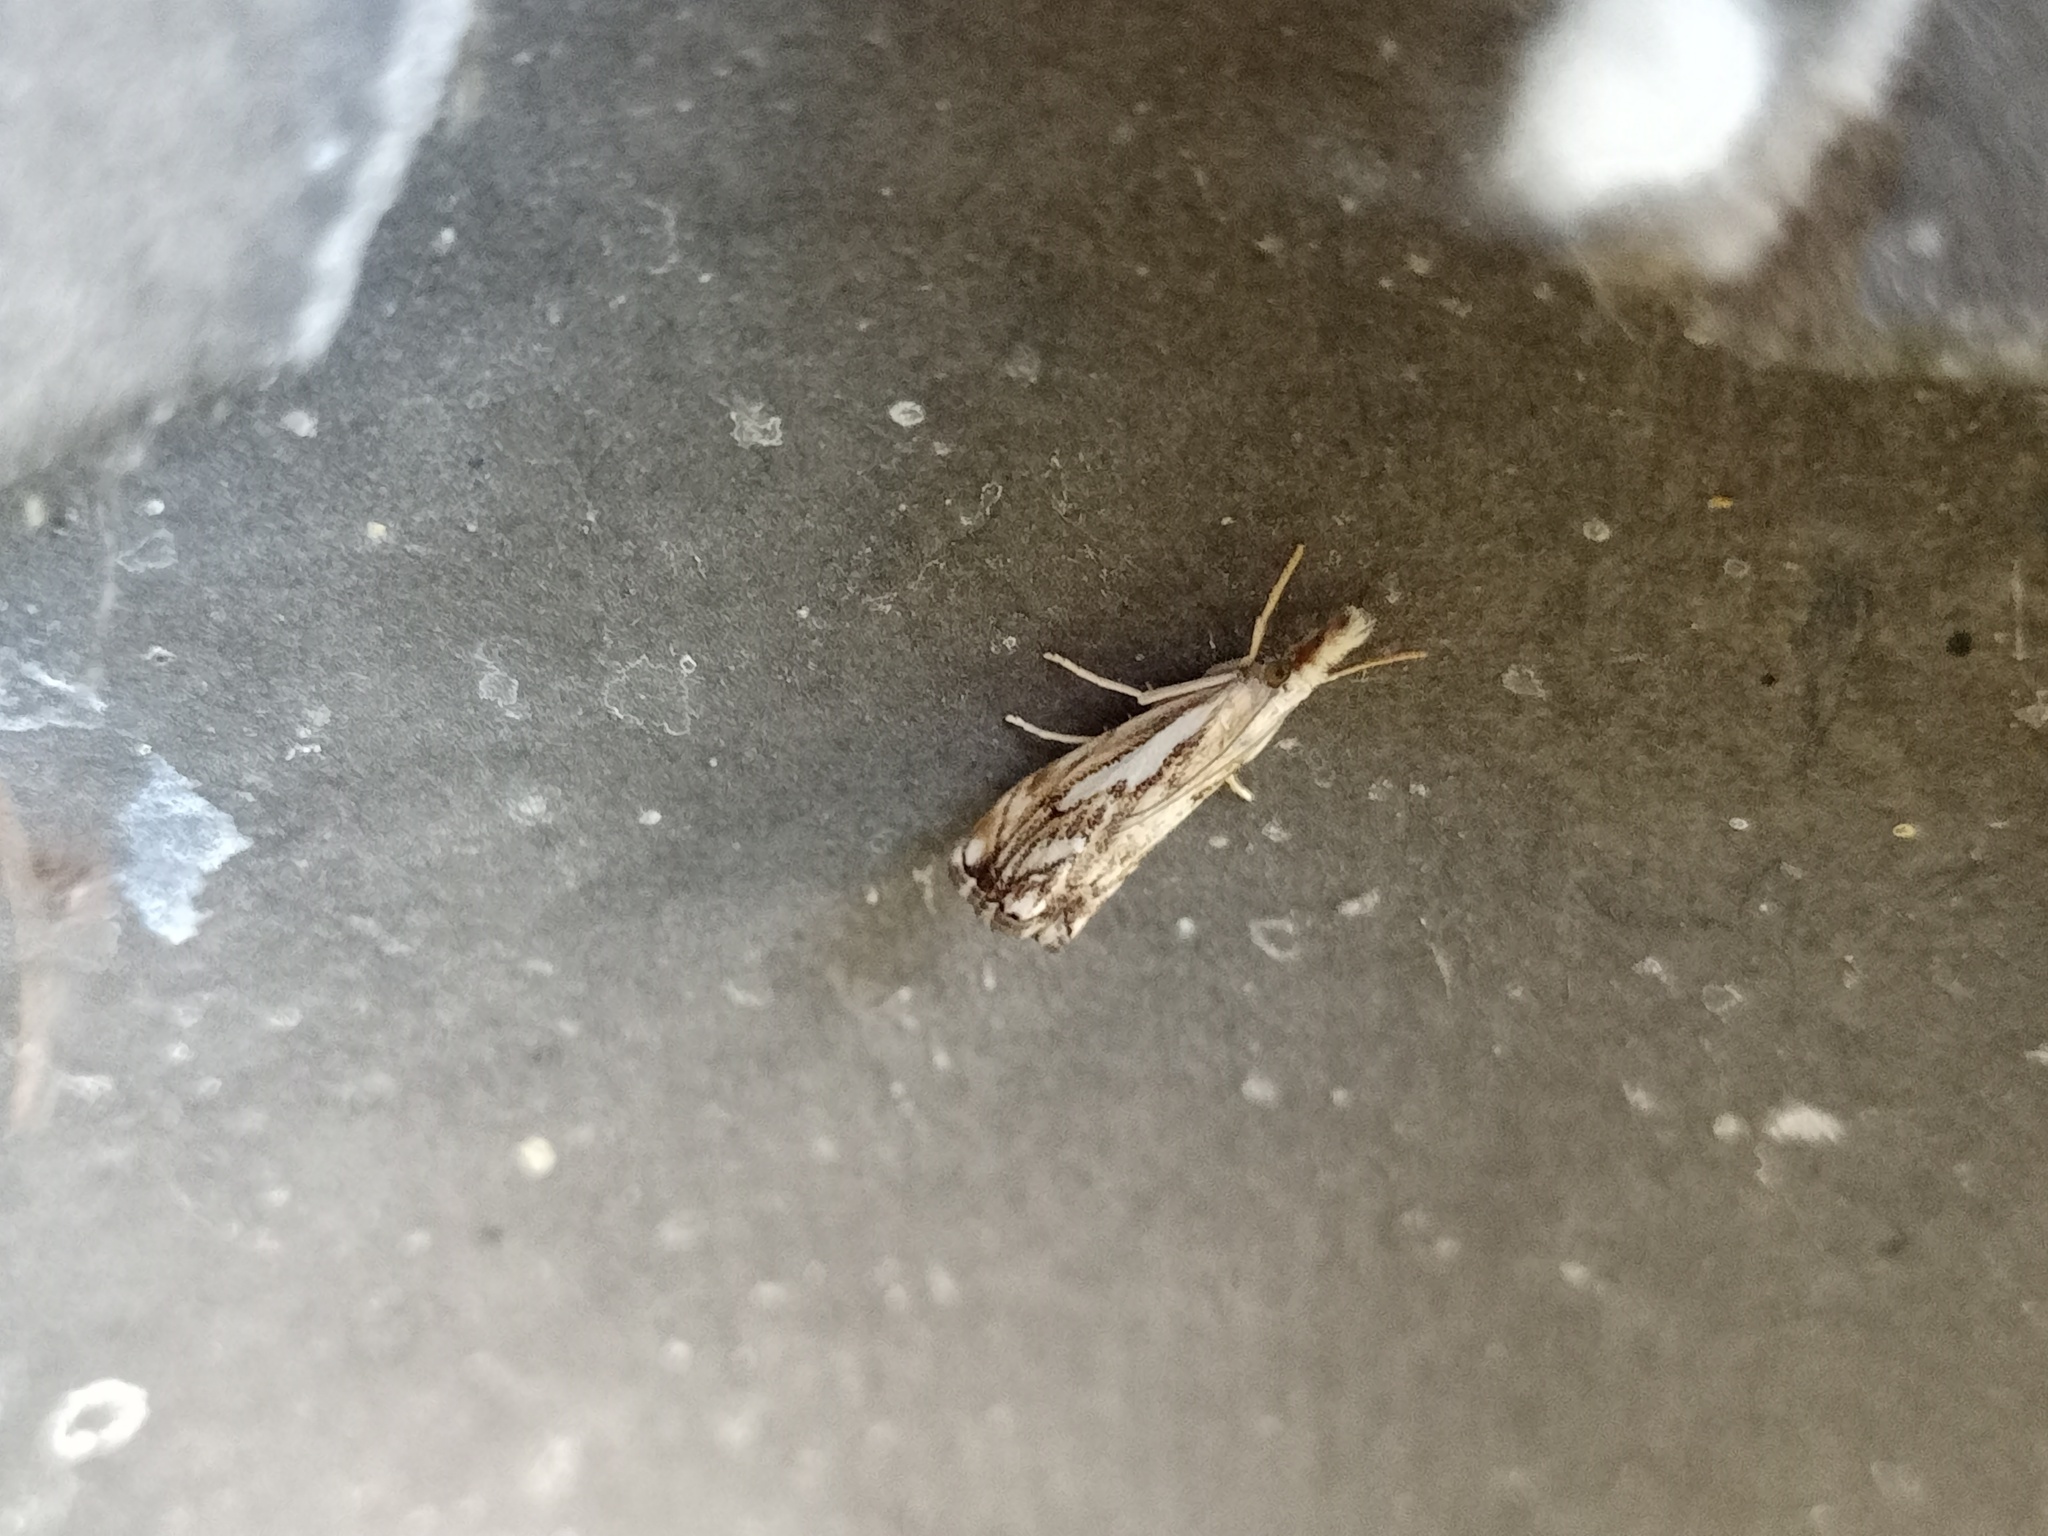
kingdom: Animalia
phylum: Arthropoda
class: Insecta
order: Lepidoptera
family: Crambidae
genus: Catoptria
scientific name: Catoptria falsella
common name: Chequered grass-veneer
